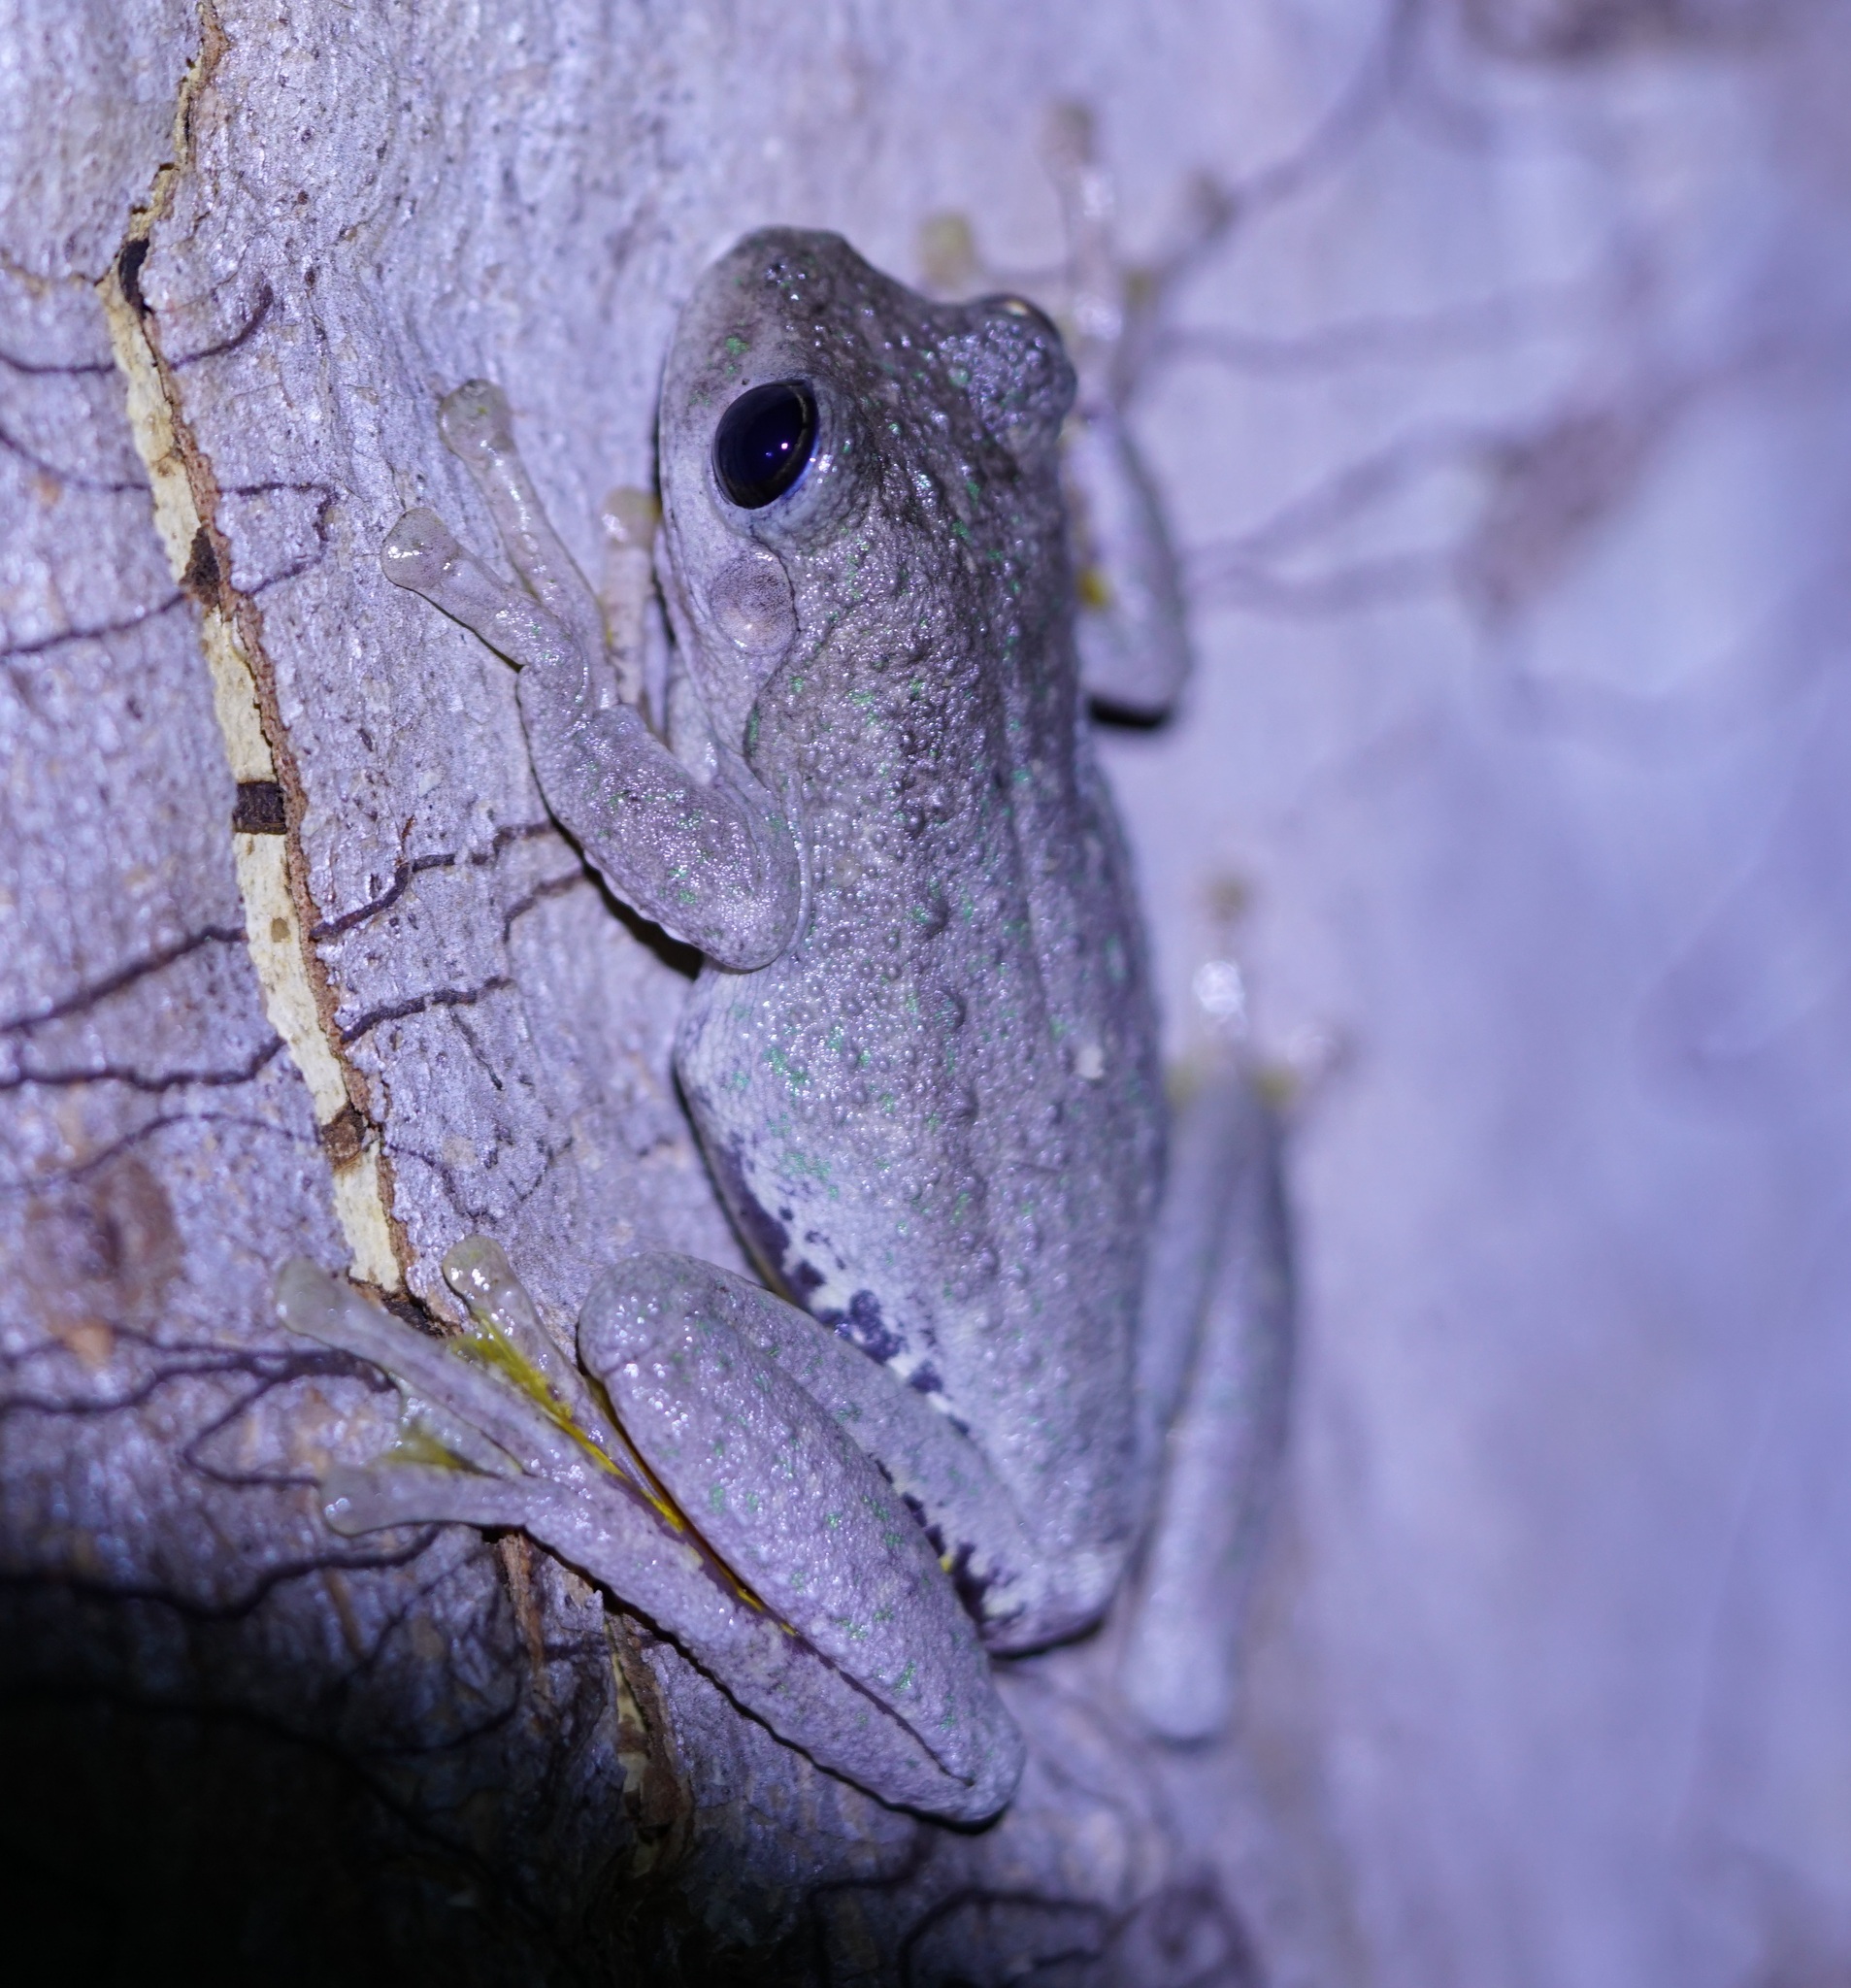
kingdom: Animalia
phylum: Chordata
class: Amphibia
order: Anura
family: Pelodryadidae
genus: Litoria
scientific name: Litoria peronii
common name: Emerald spotted treefrog
